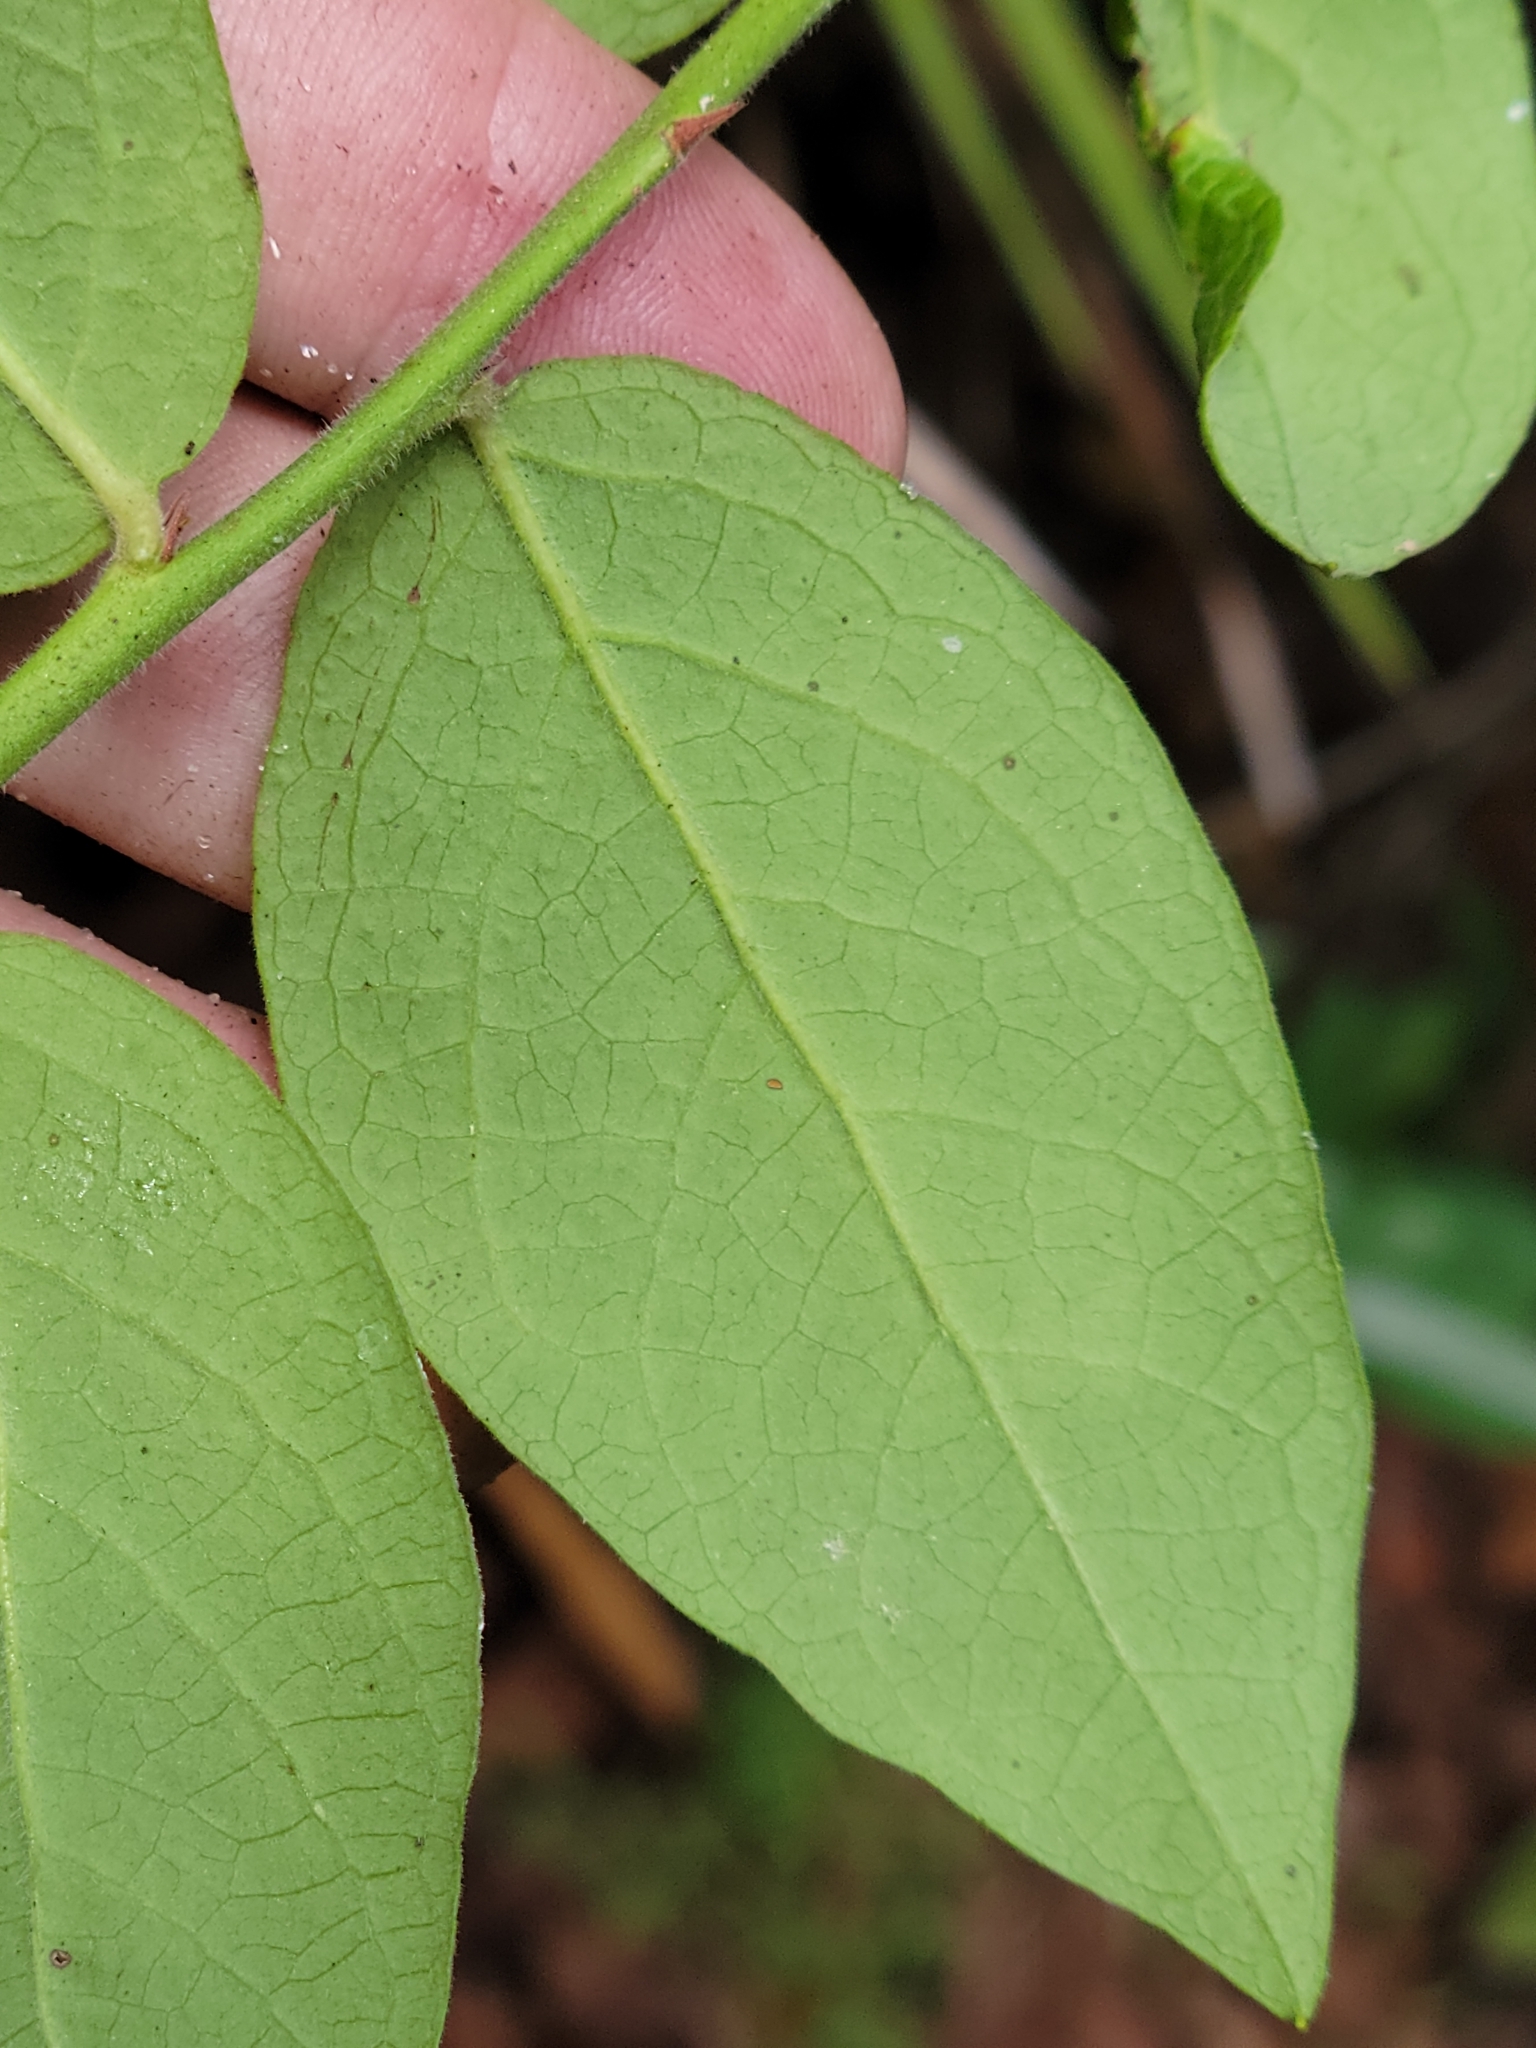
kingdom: Plantae
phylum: Tracheophyta
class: Magnoliopsida
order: Ericales
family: Ericaceae
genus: Vaccinium
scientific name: Vaccinium corymbosum
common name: Blueberry
